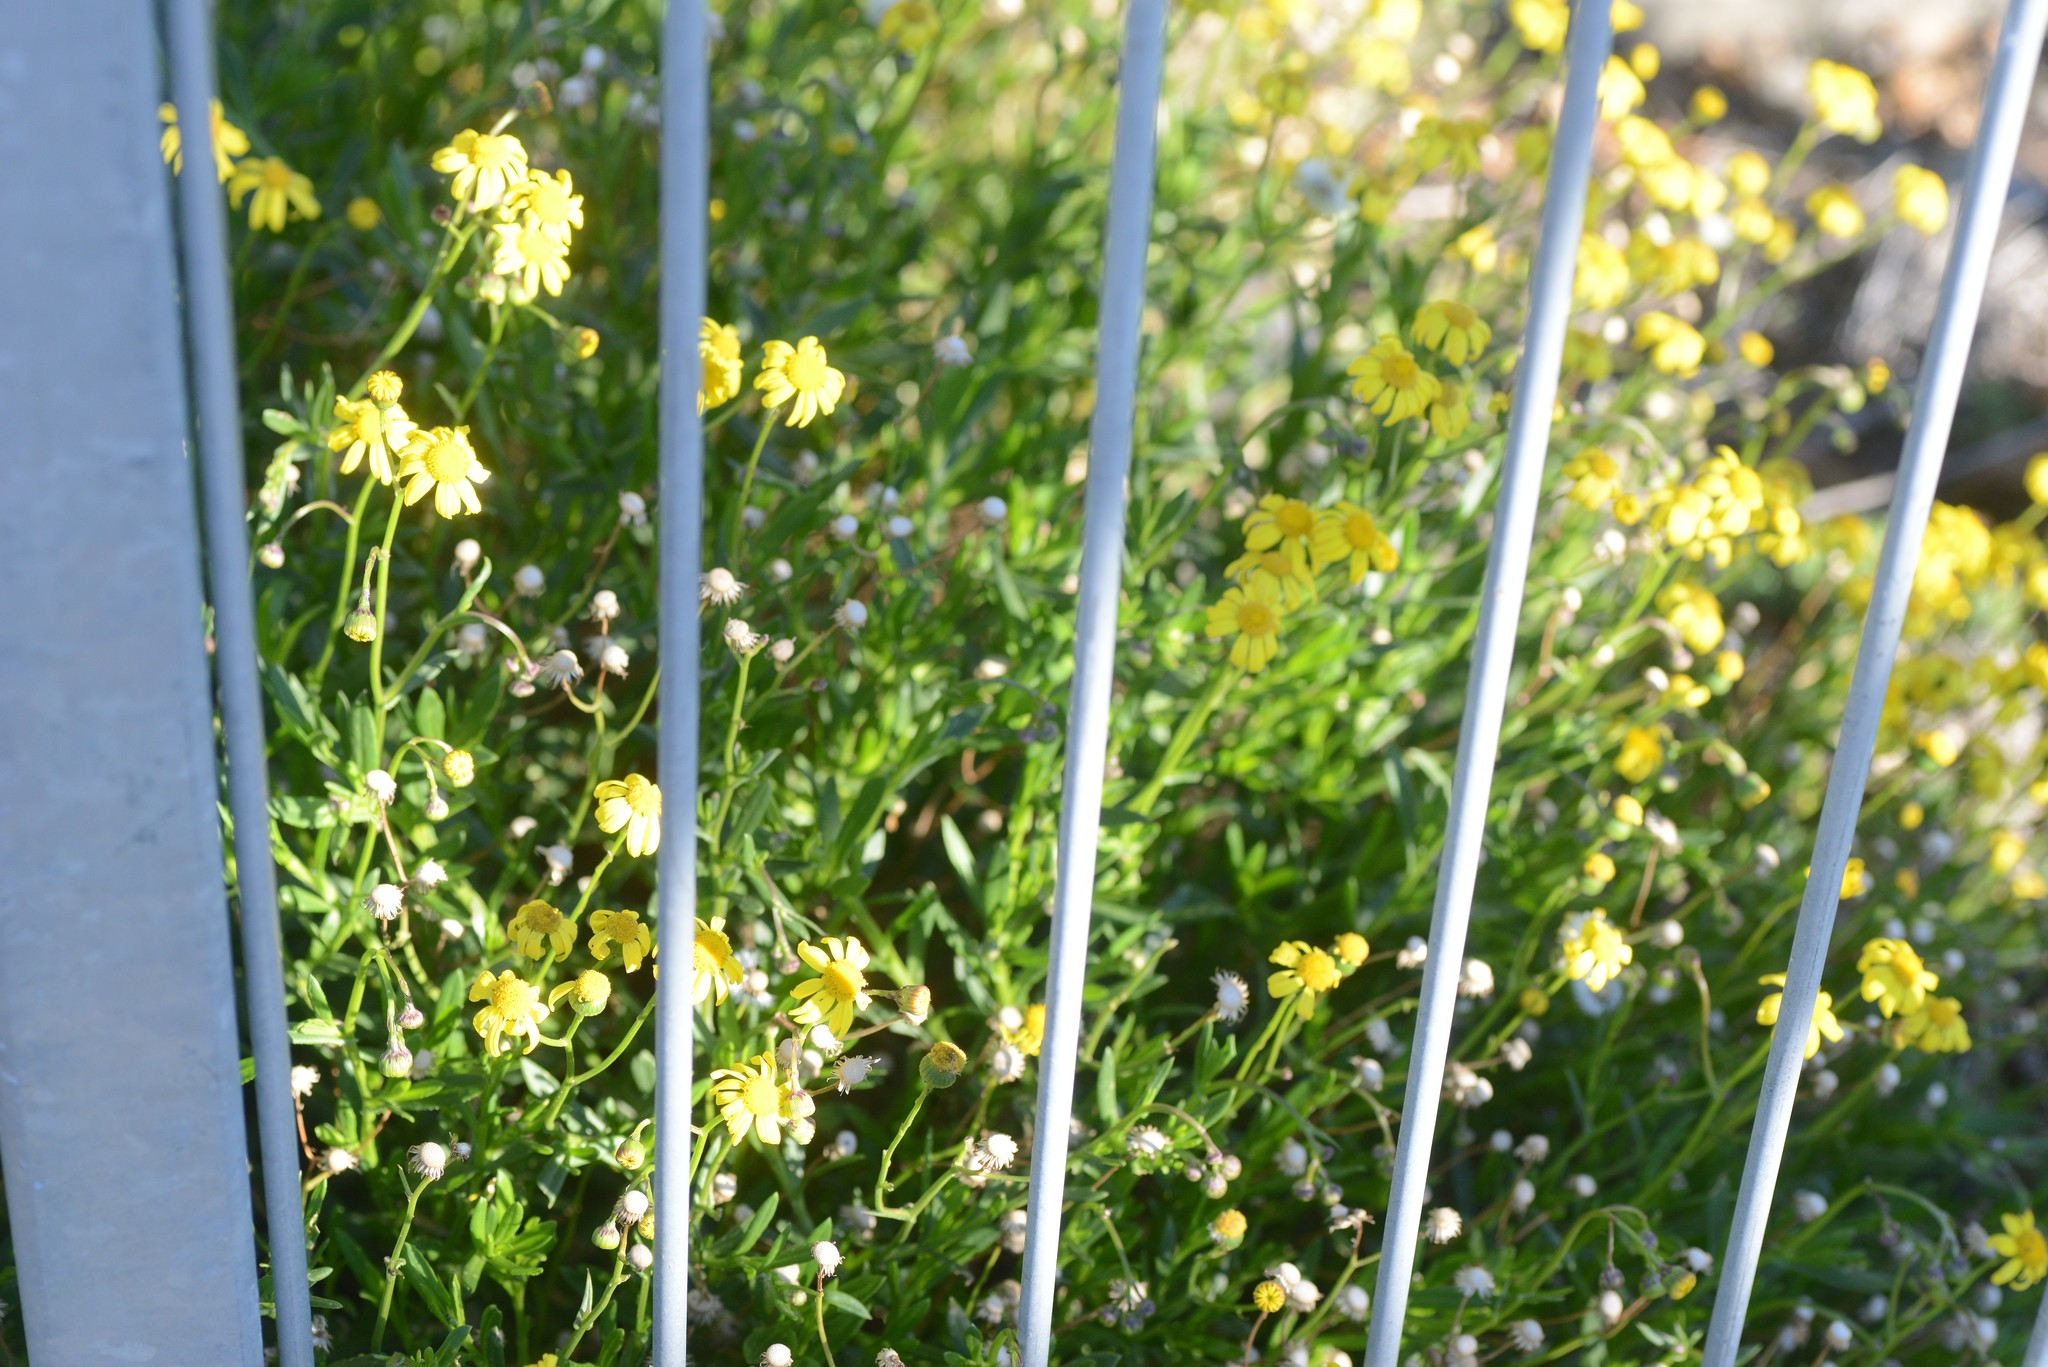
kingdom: Plantae
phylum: Tracheophyta
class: Magnoliopsida
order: Asterales
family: Asteraceae
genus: Senecio
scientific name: Senecio skirrhodon
